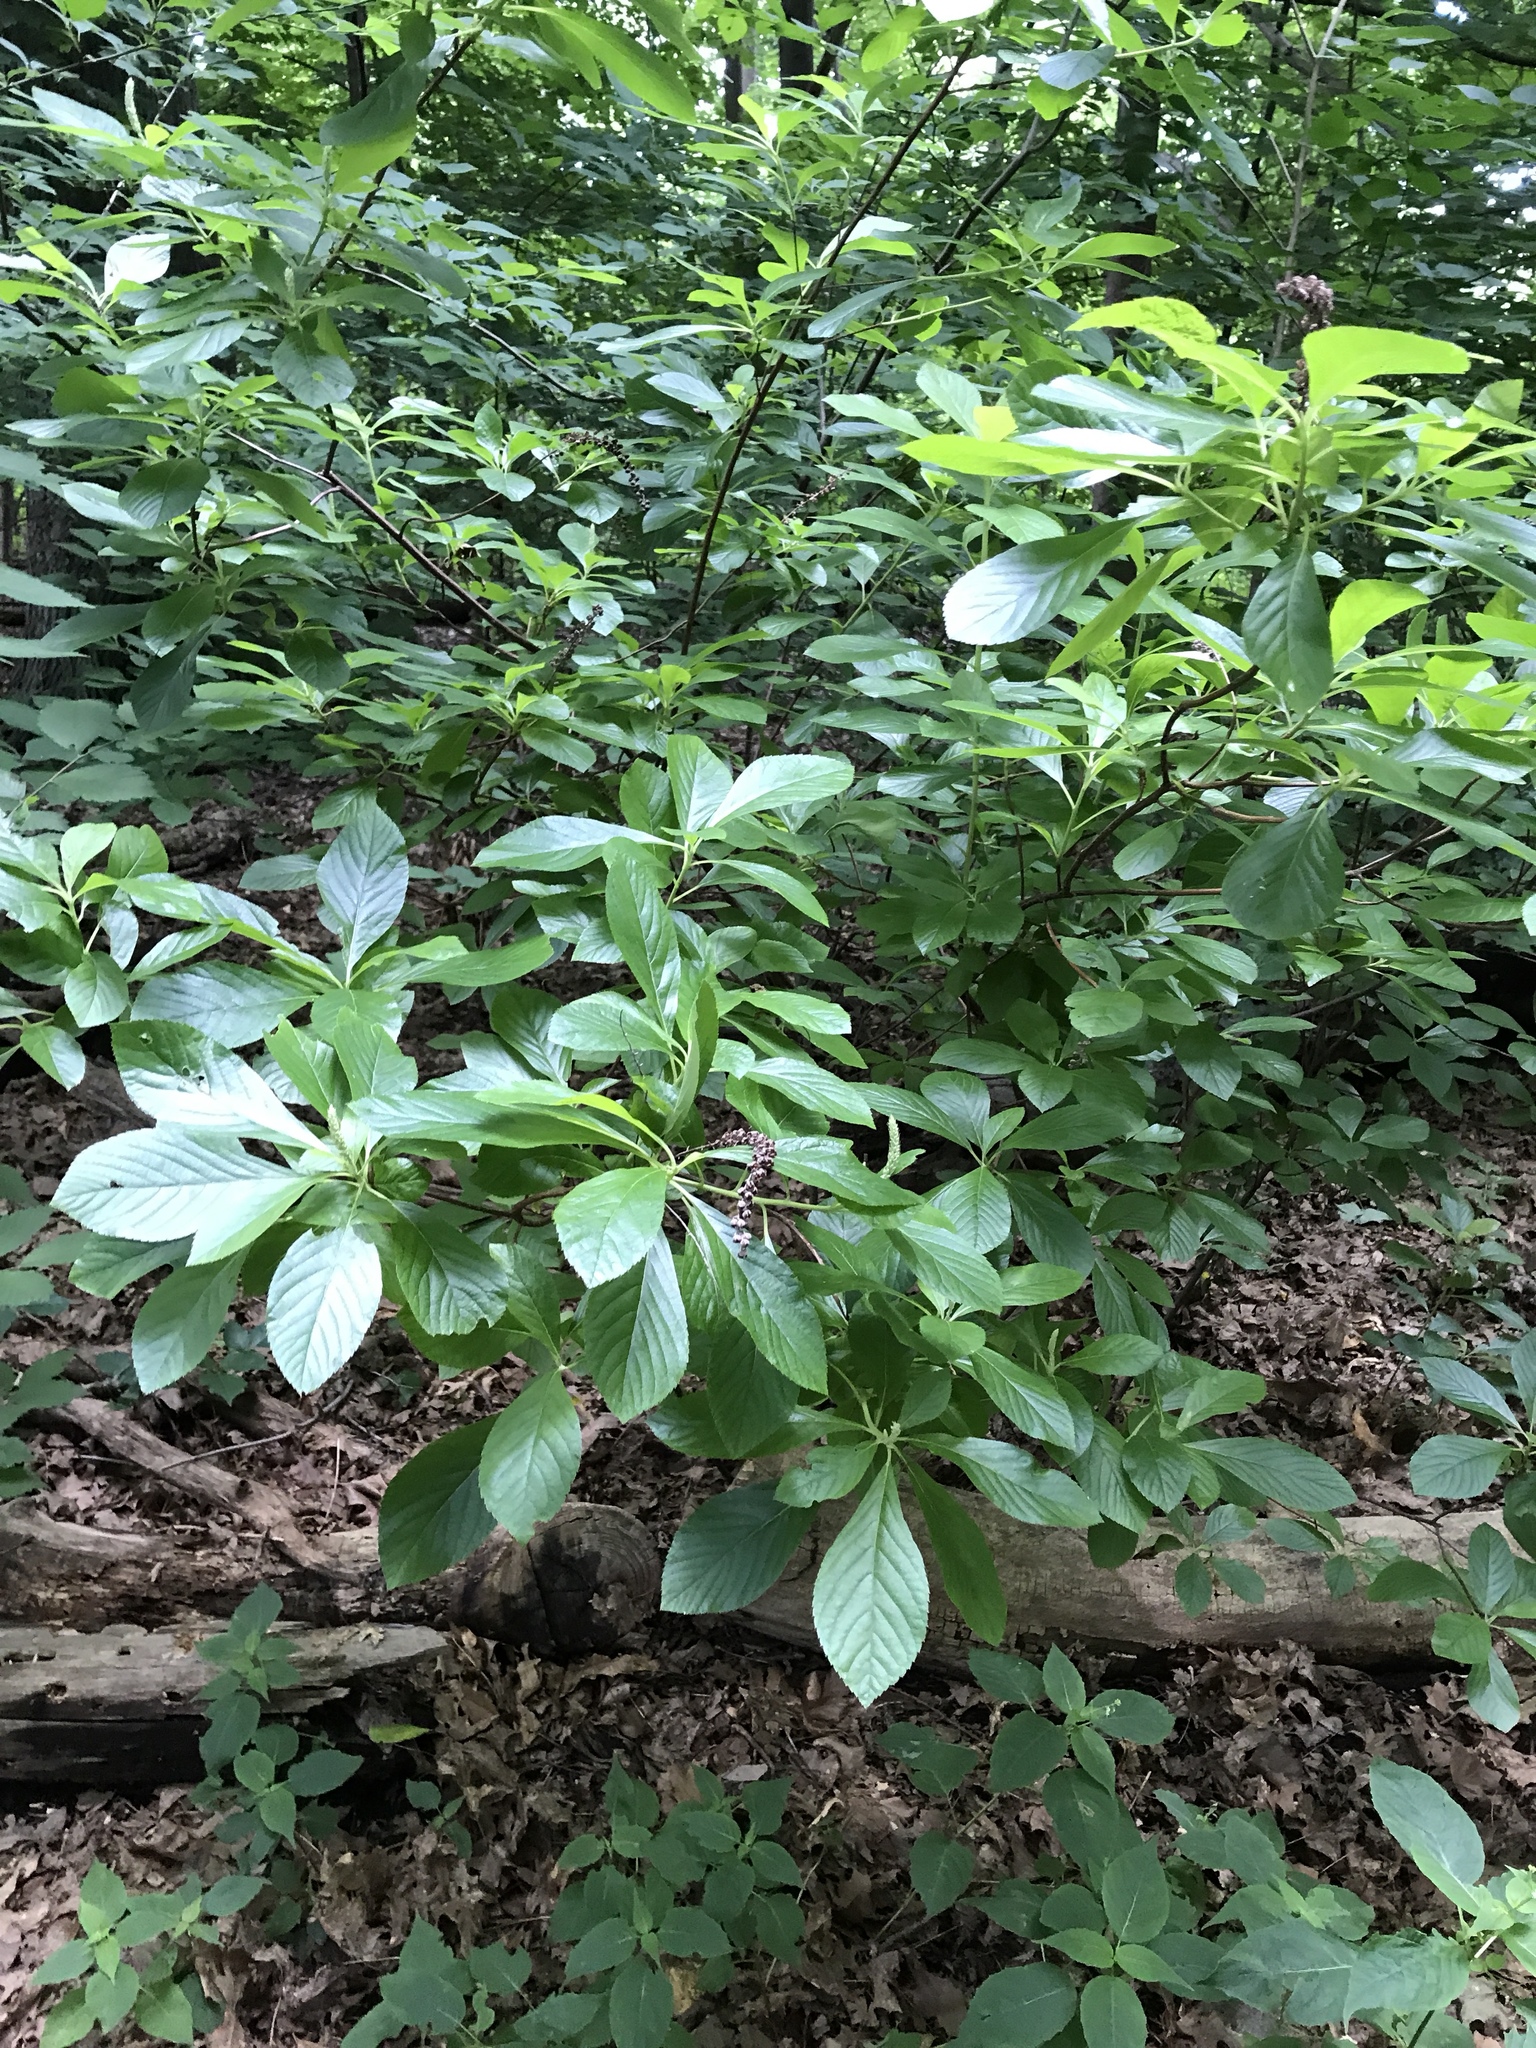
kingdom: Plantae
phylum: Tracheophyta
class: Magnoliopsida
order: Ericales
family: Clethraceae
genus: Clethra
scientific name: Clethra alnifolia
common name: Sweet pepperbush
